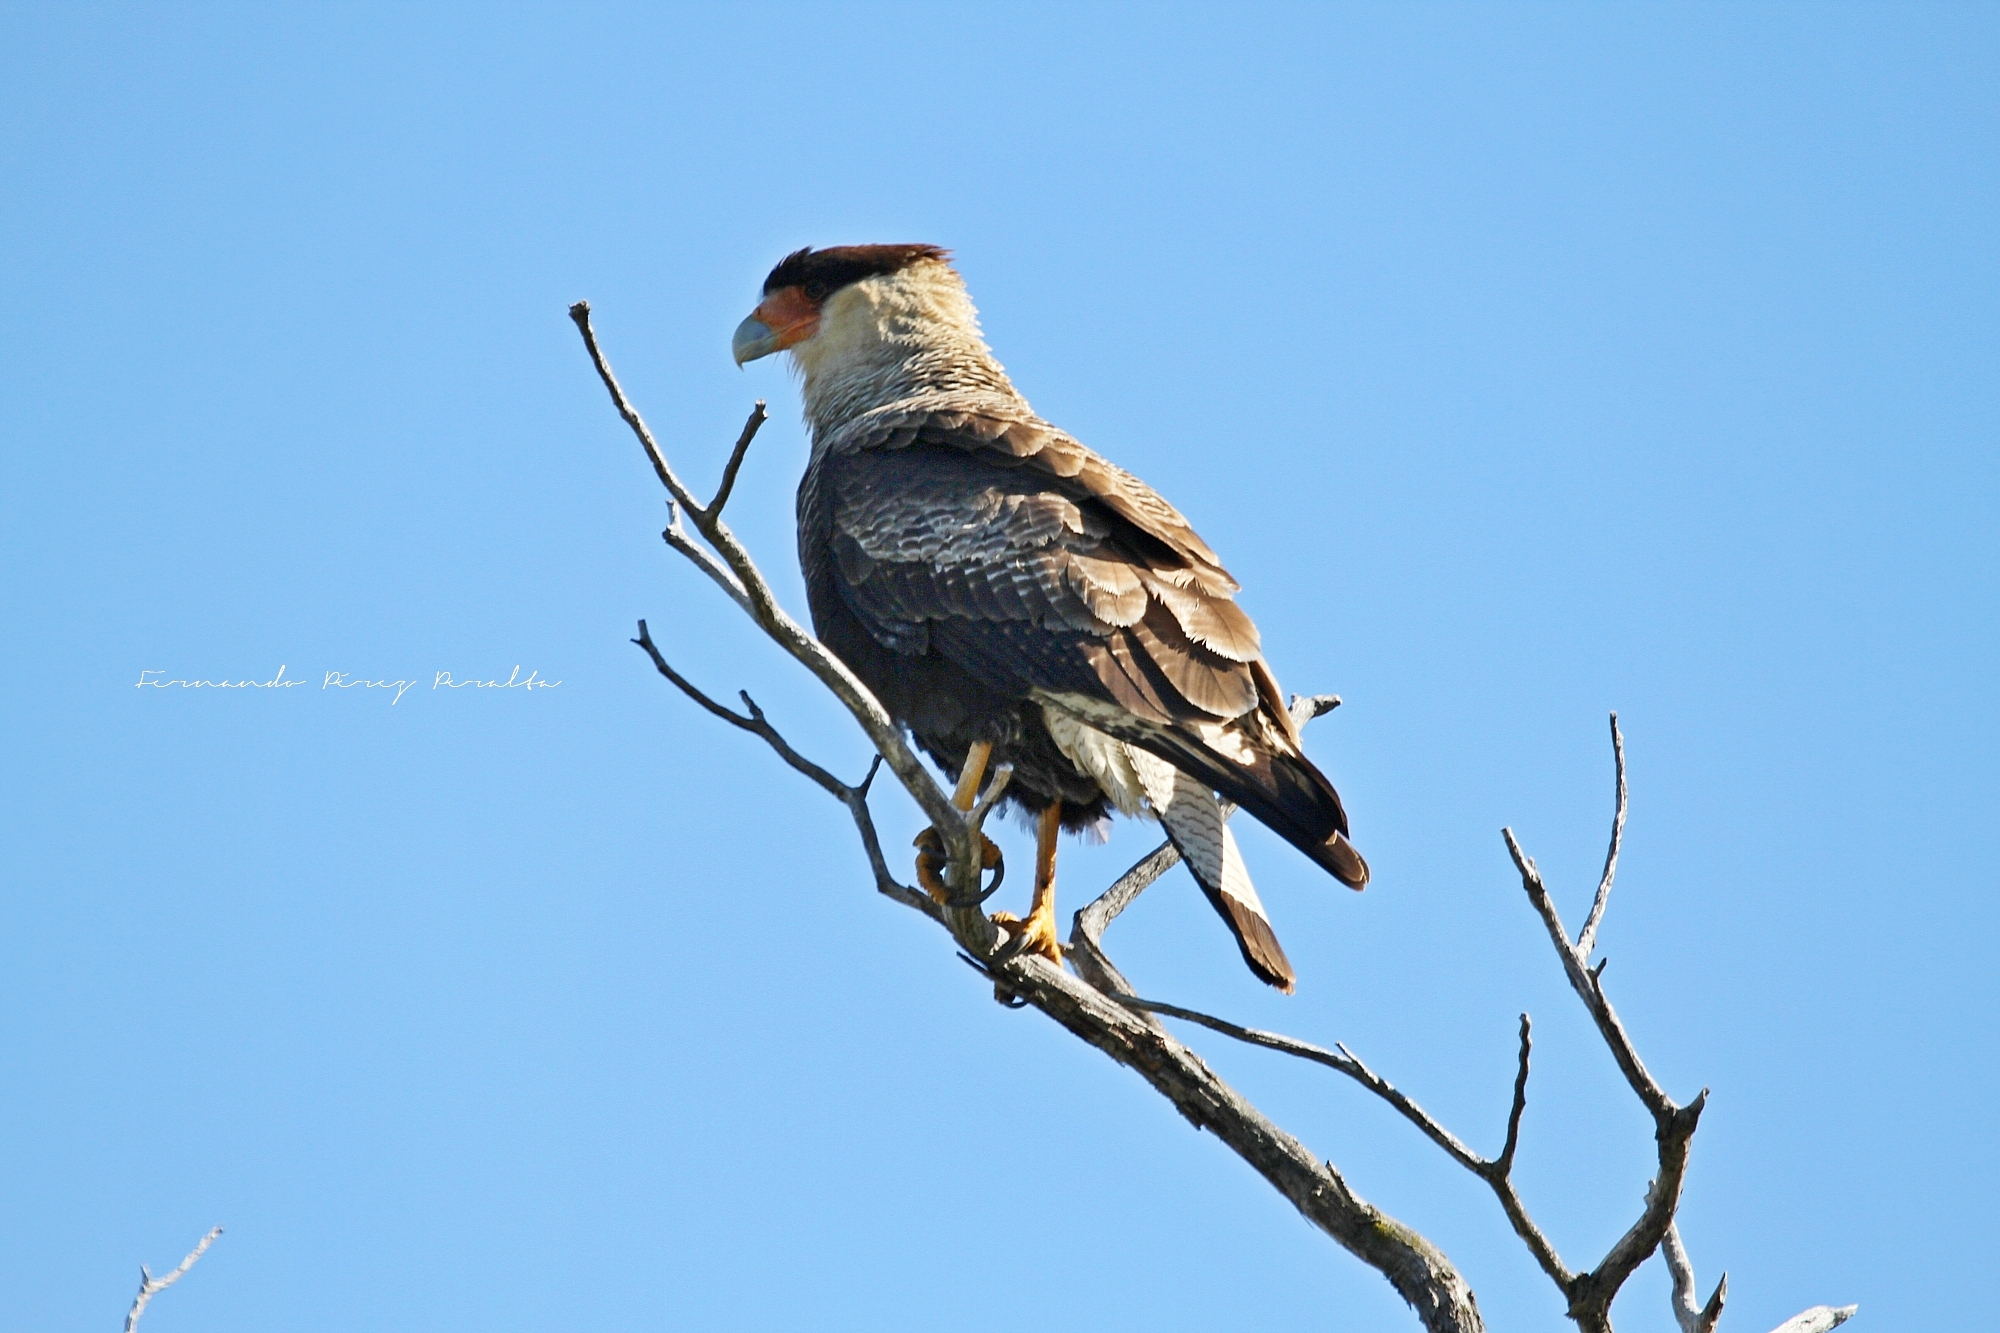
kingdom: Animalia
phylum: Chordata
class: Aves
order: Falconiformes
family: Falconidae
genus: Caracara
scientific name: Caracara plancus
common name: Southern caracara
